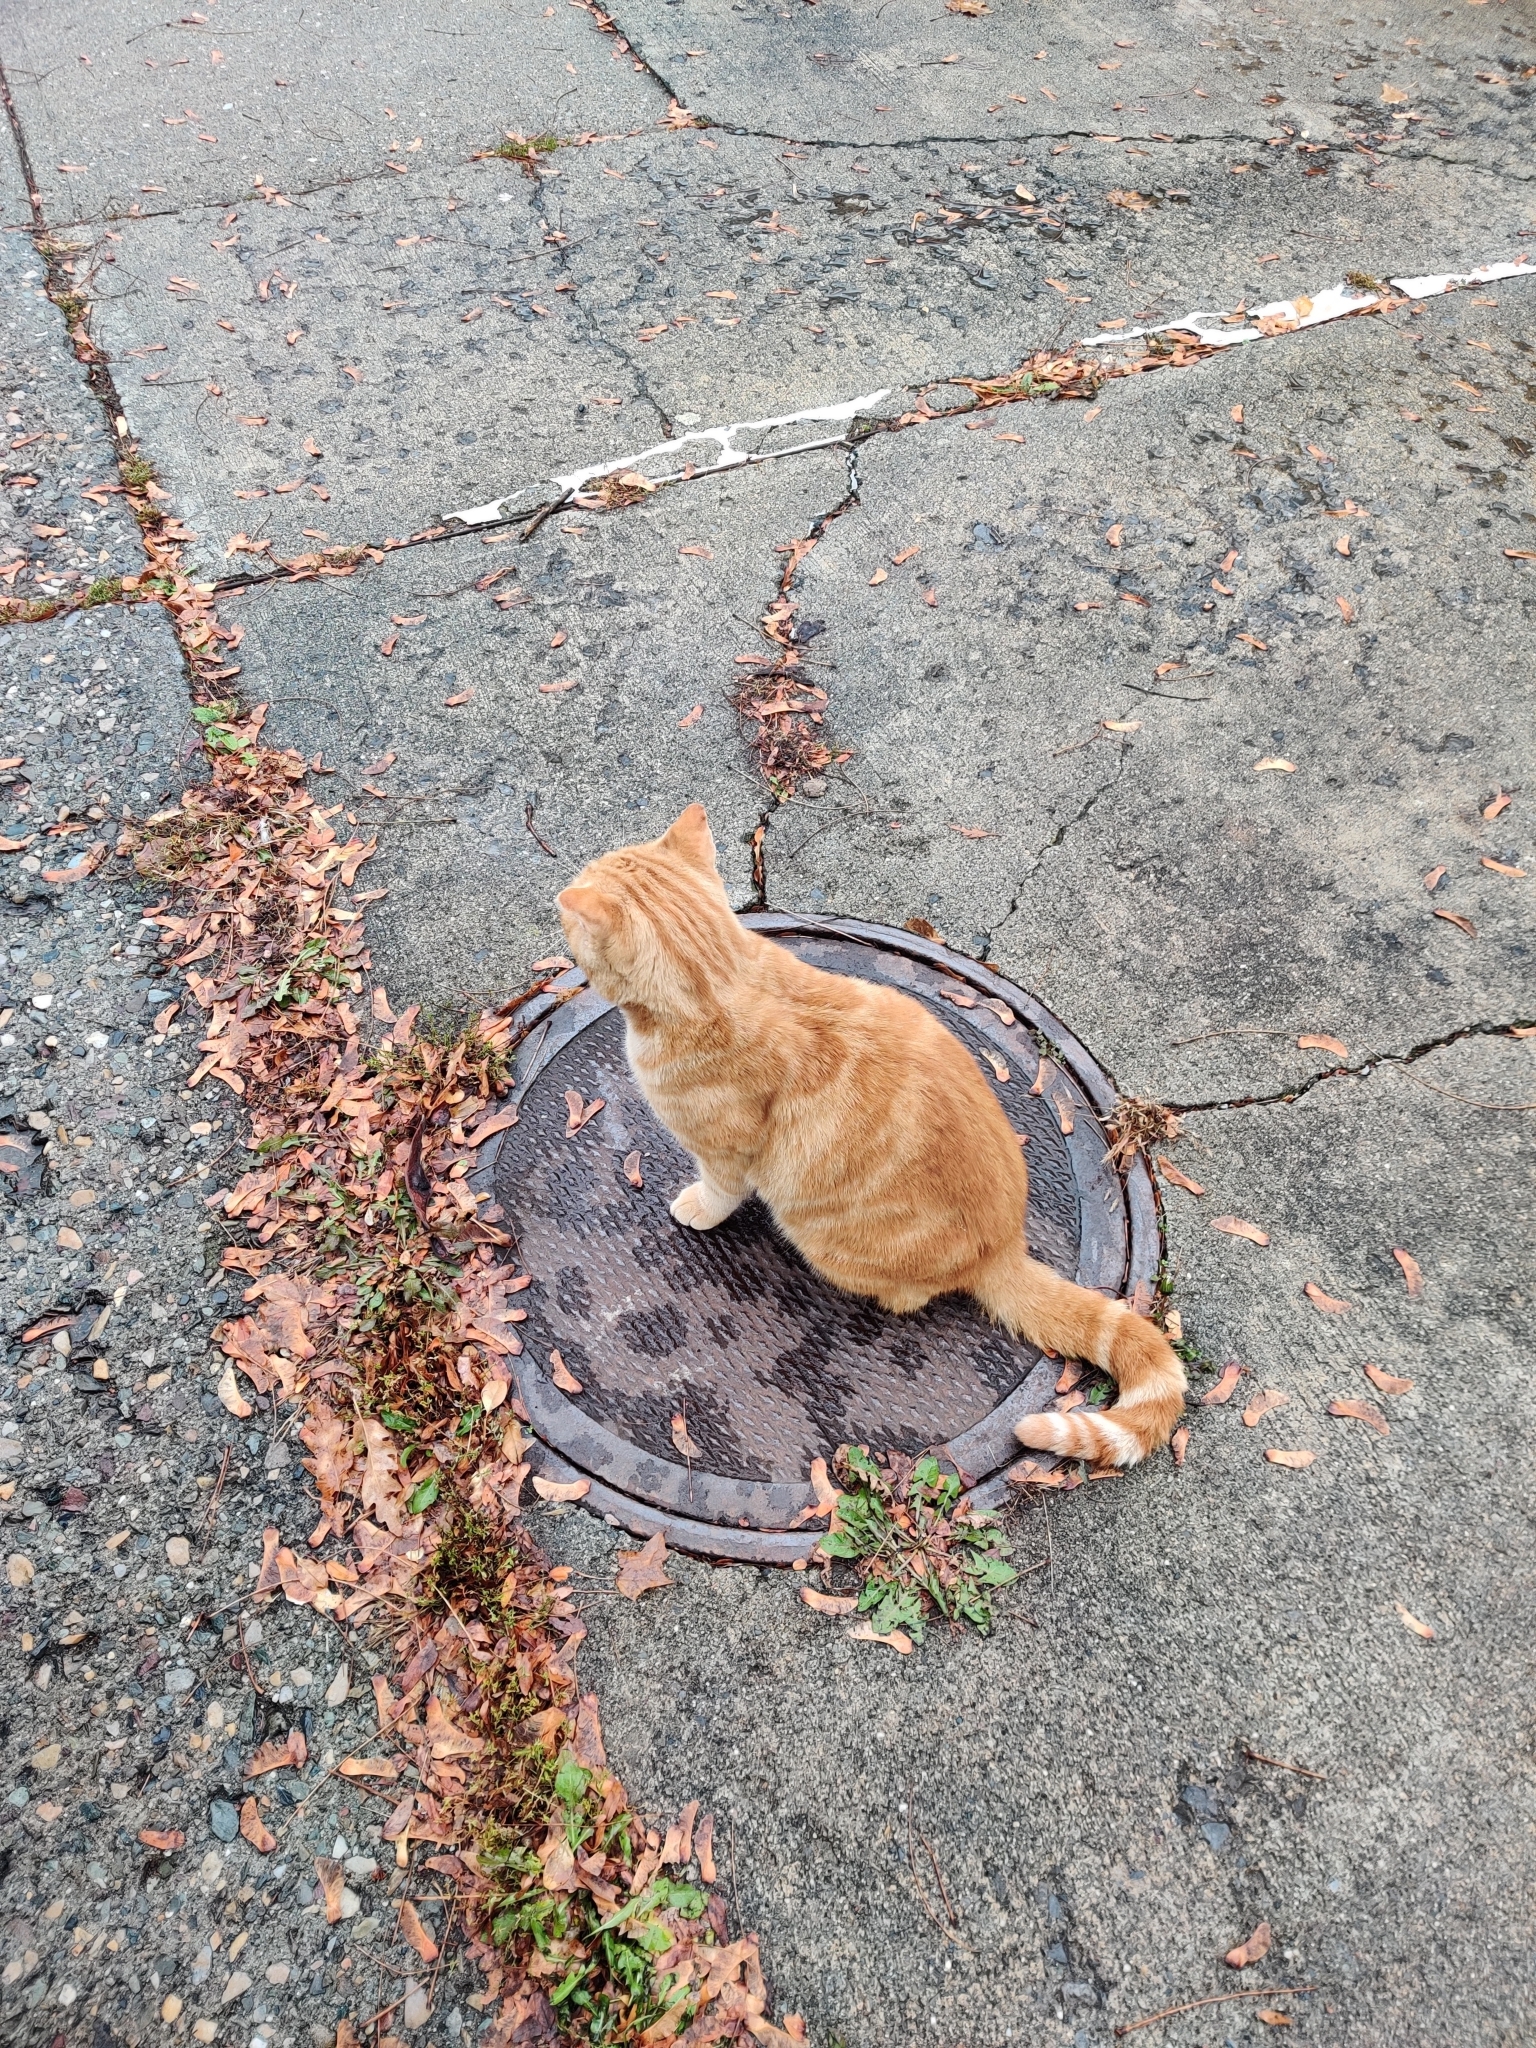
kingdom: Animalia
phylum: Chordata
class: Mammalia
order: Carnivora
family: Felidae
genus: Felis
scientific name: Felis catus
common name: Domestic cat
